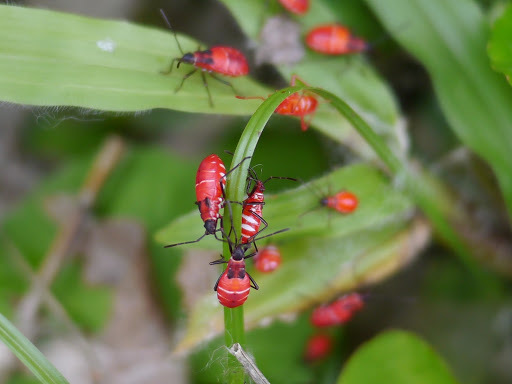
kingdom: Animalia
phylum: Arthropoda
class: Insecta
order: Hemiptera
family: Pyrrhocoridae
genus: Dysdercus
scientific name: Dysdercus superstitiosus
